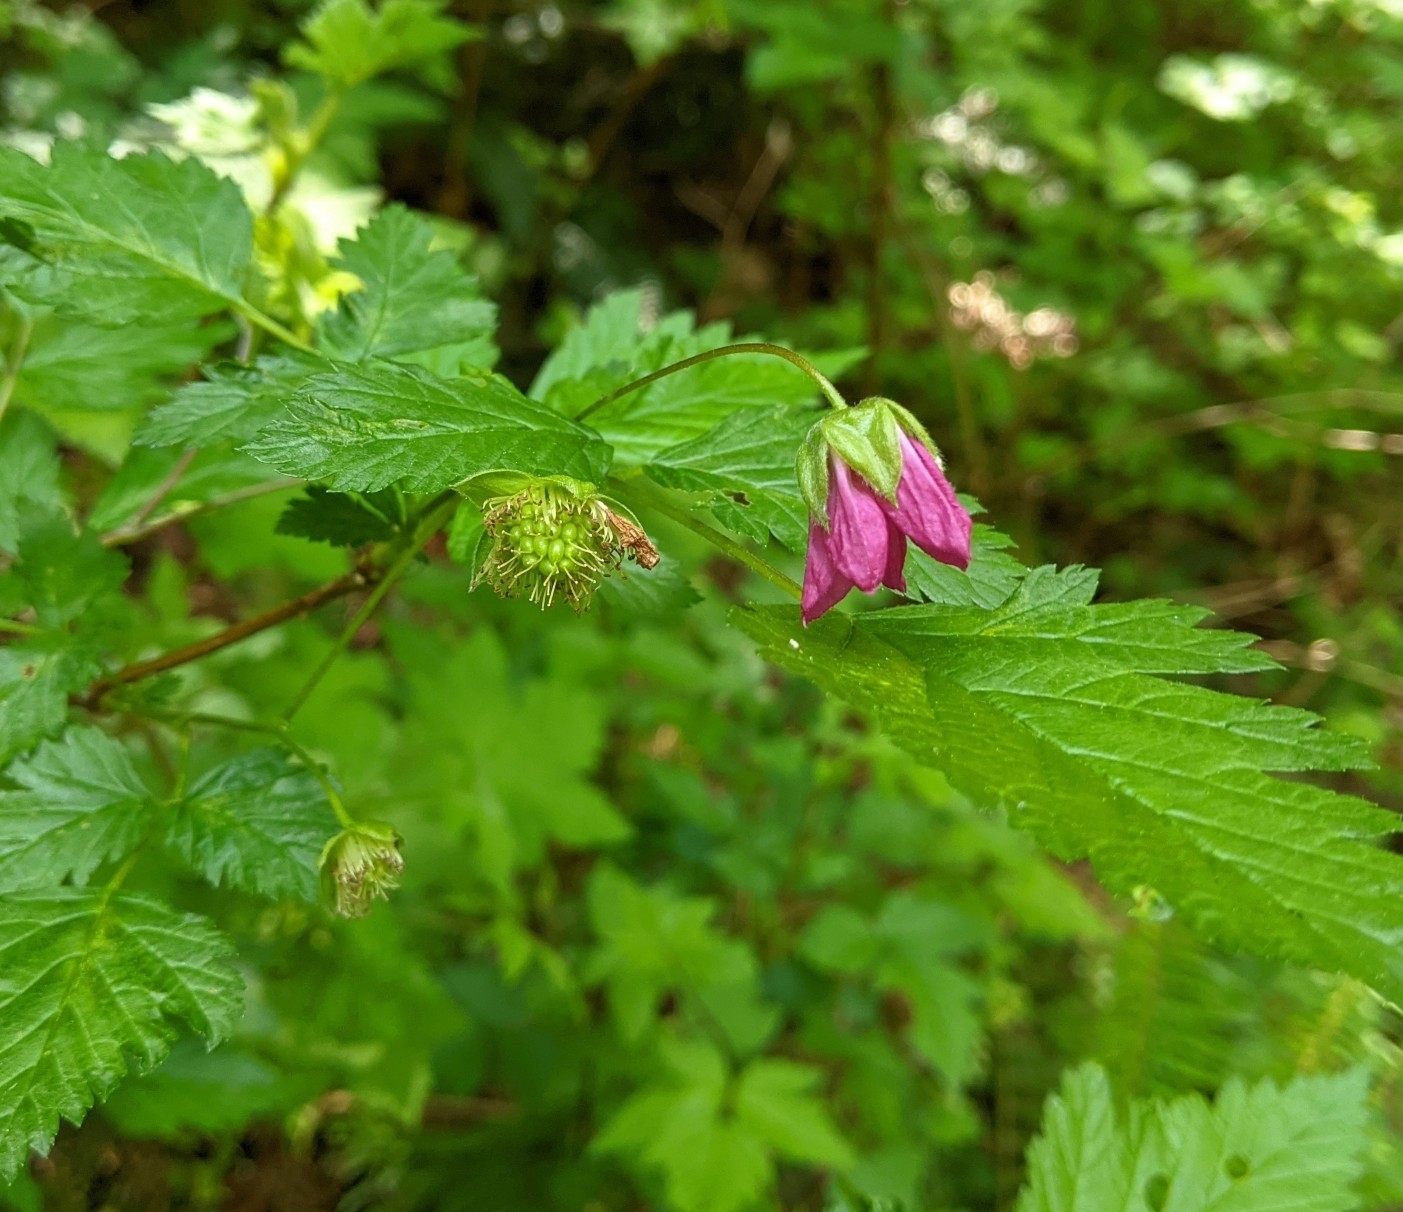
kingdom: Plantae
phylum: Tracheophyta
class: Magnoliopsida
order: Rosales
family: Rosaceae
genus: Rubus
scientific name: Rubus spectabilis
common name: Salmonberry
